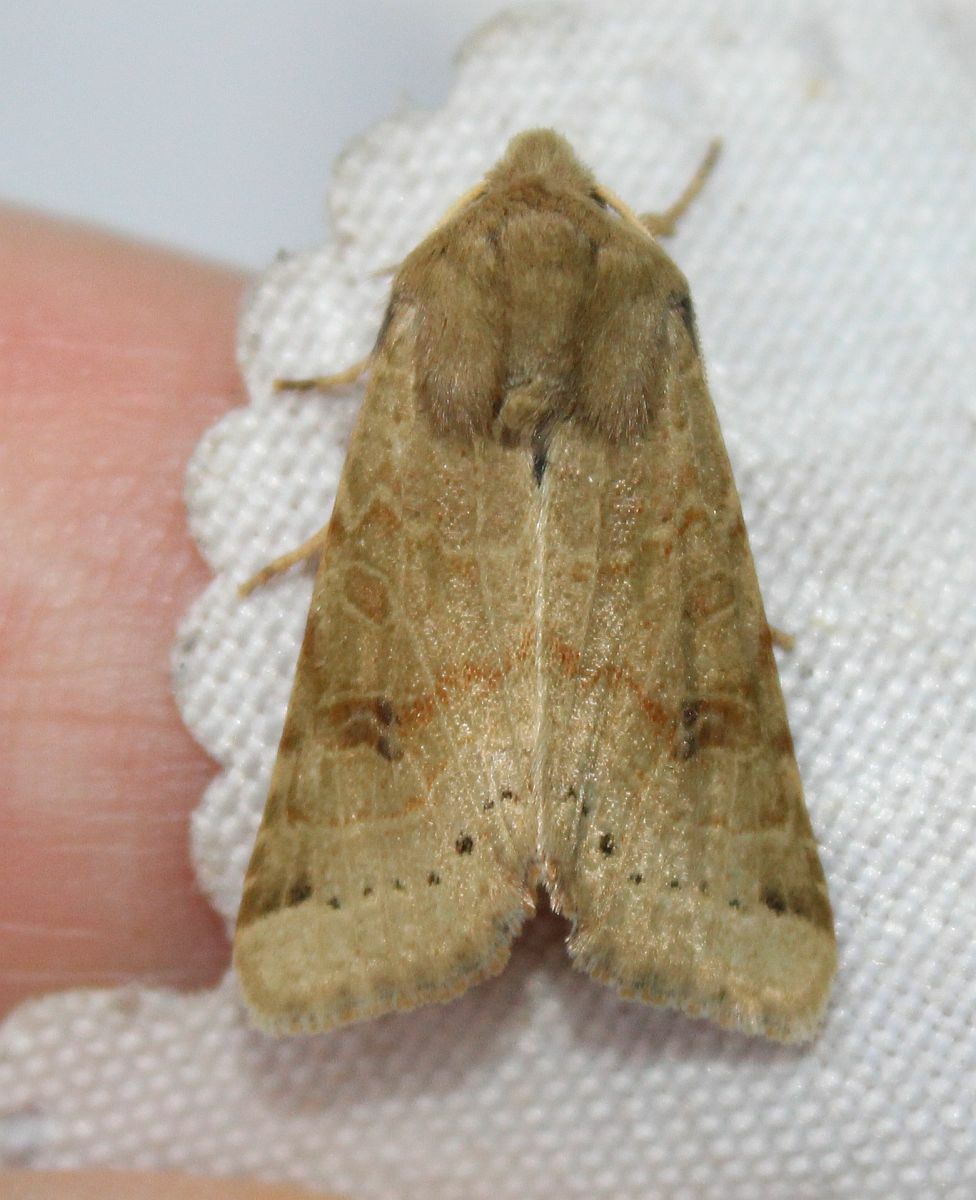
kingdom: Animalia
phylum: Arthropoda
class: Insecta
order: Lepidoptera
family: Noctuidae
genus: Agrochola
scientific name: Agrochola lunosa
